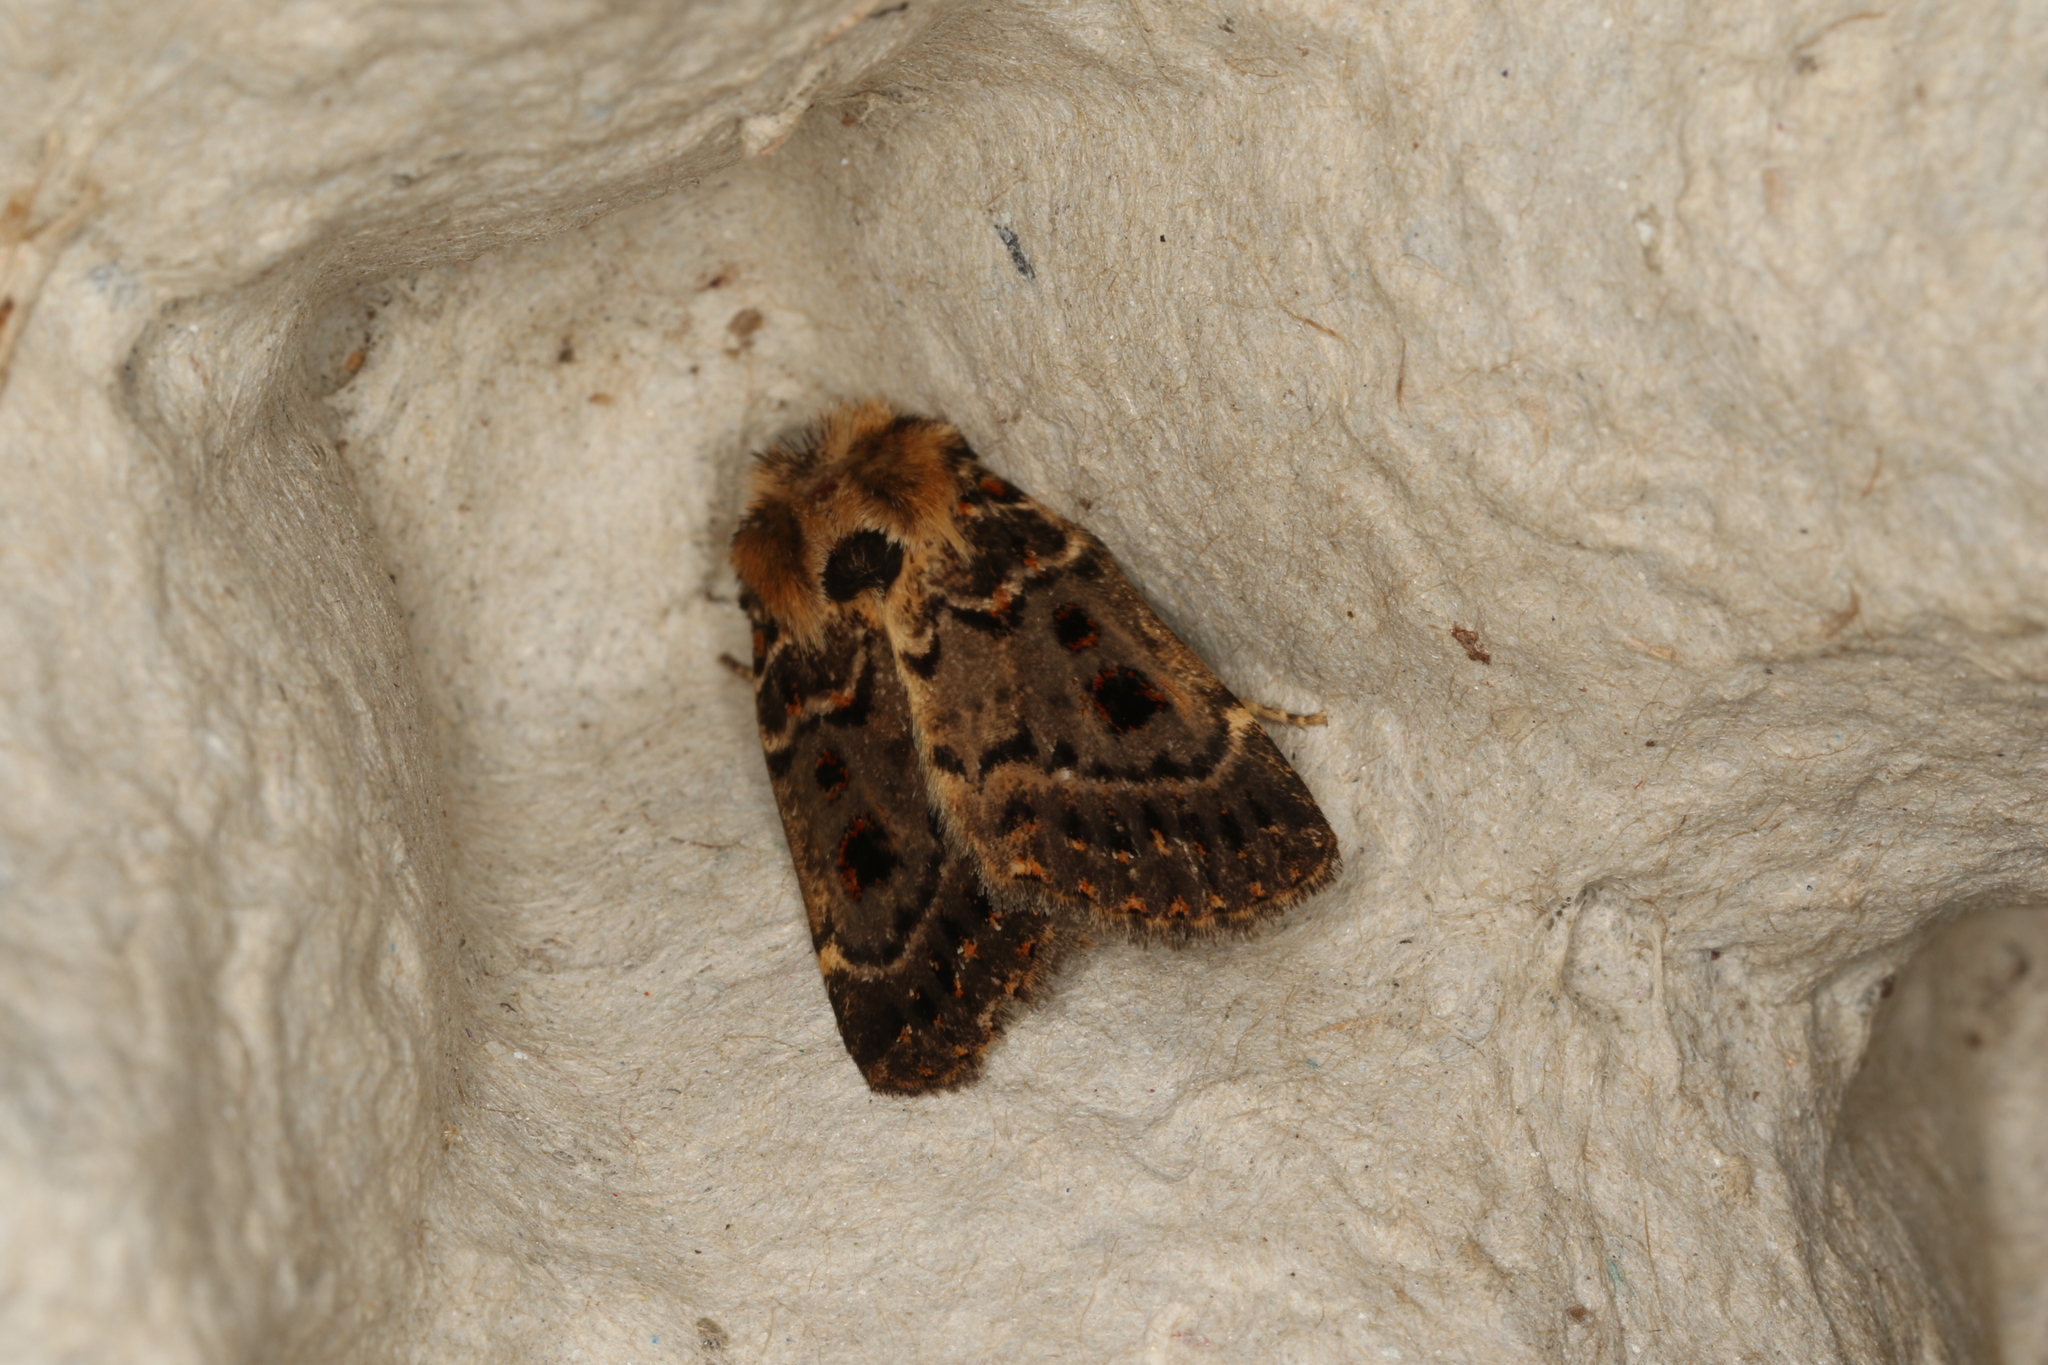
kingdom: Animalia
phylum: Arthropoda
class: Insecta
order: Lepidoptera
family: Noctuidae
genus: Proteuxoa
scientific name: Proteuxoa sanguinipuncta
